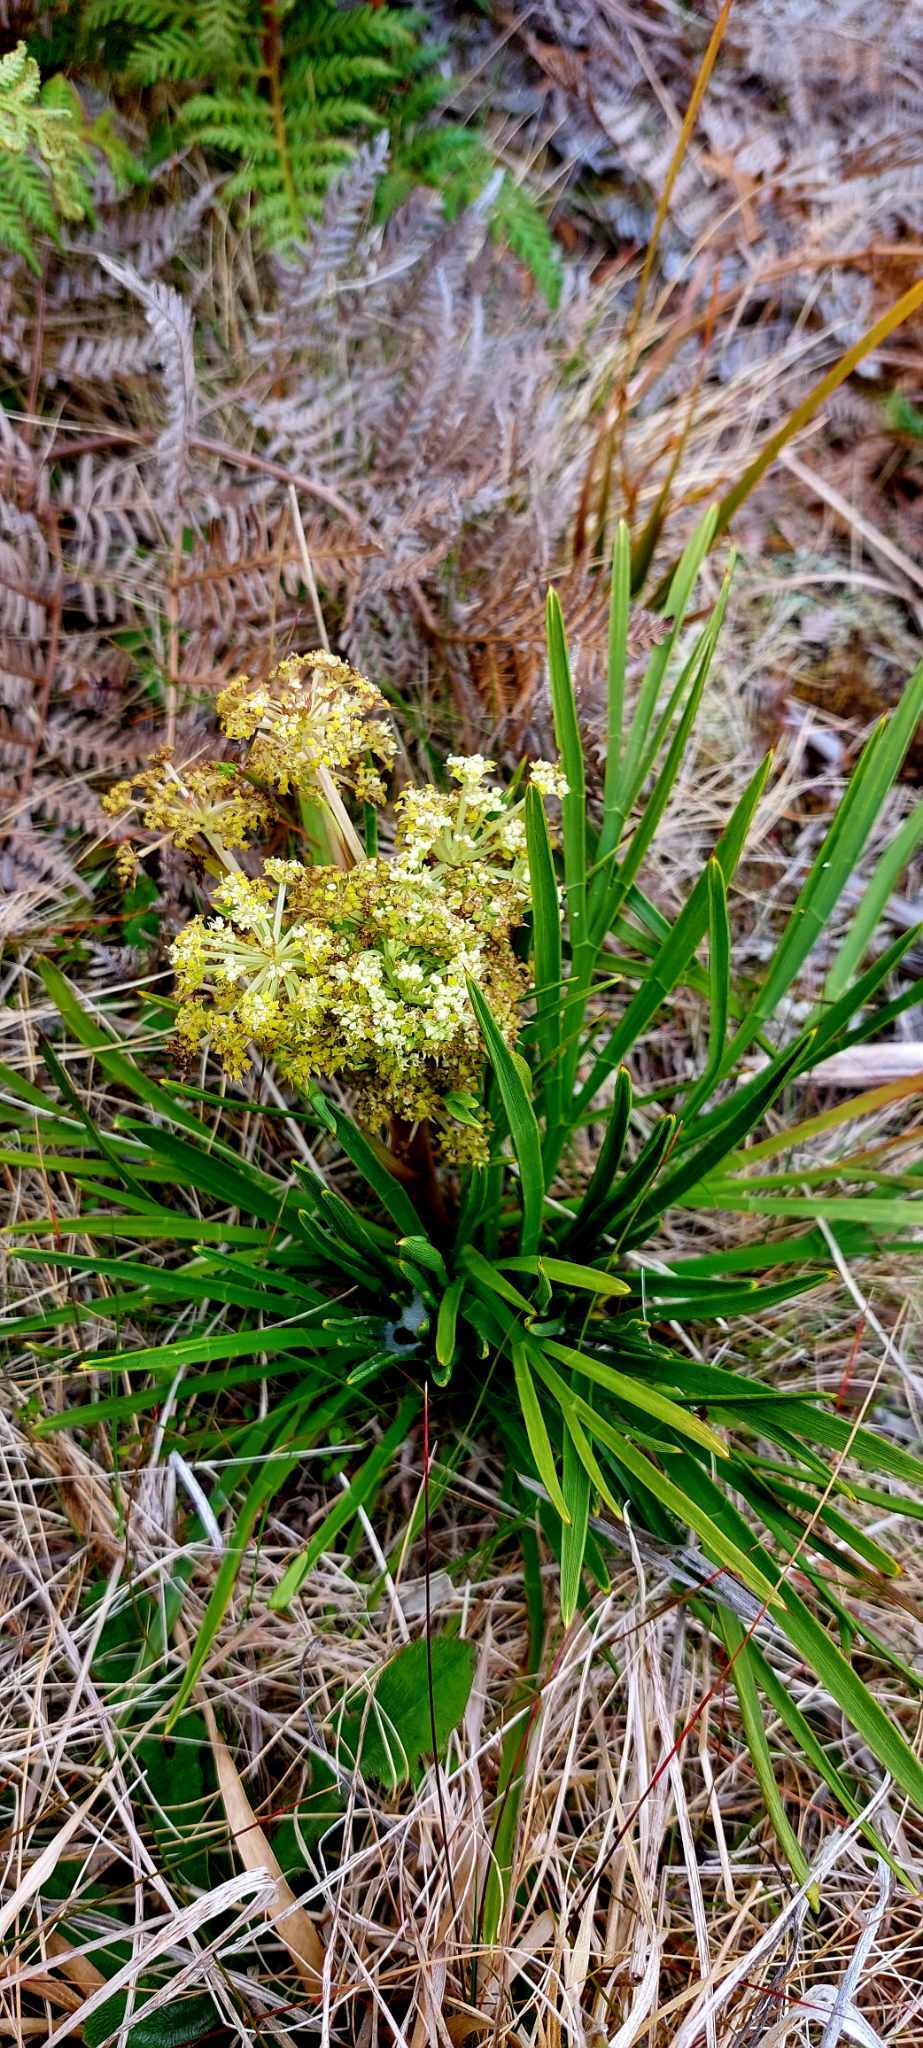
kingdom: Plantae
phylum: Tracheophyta
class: Magnoliopsida
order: Apiales
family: Apiaceae
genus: Aciphylla
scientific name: Aciphylla traversii
